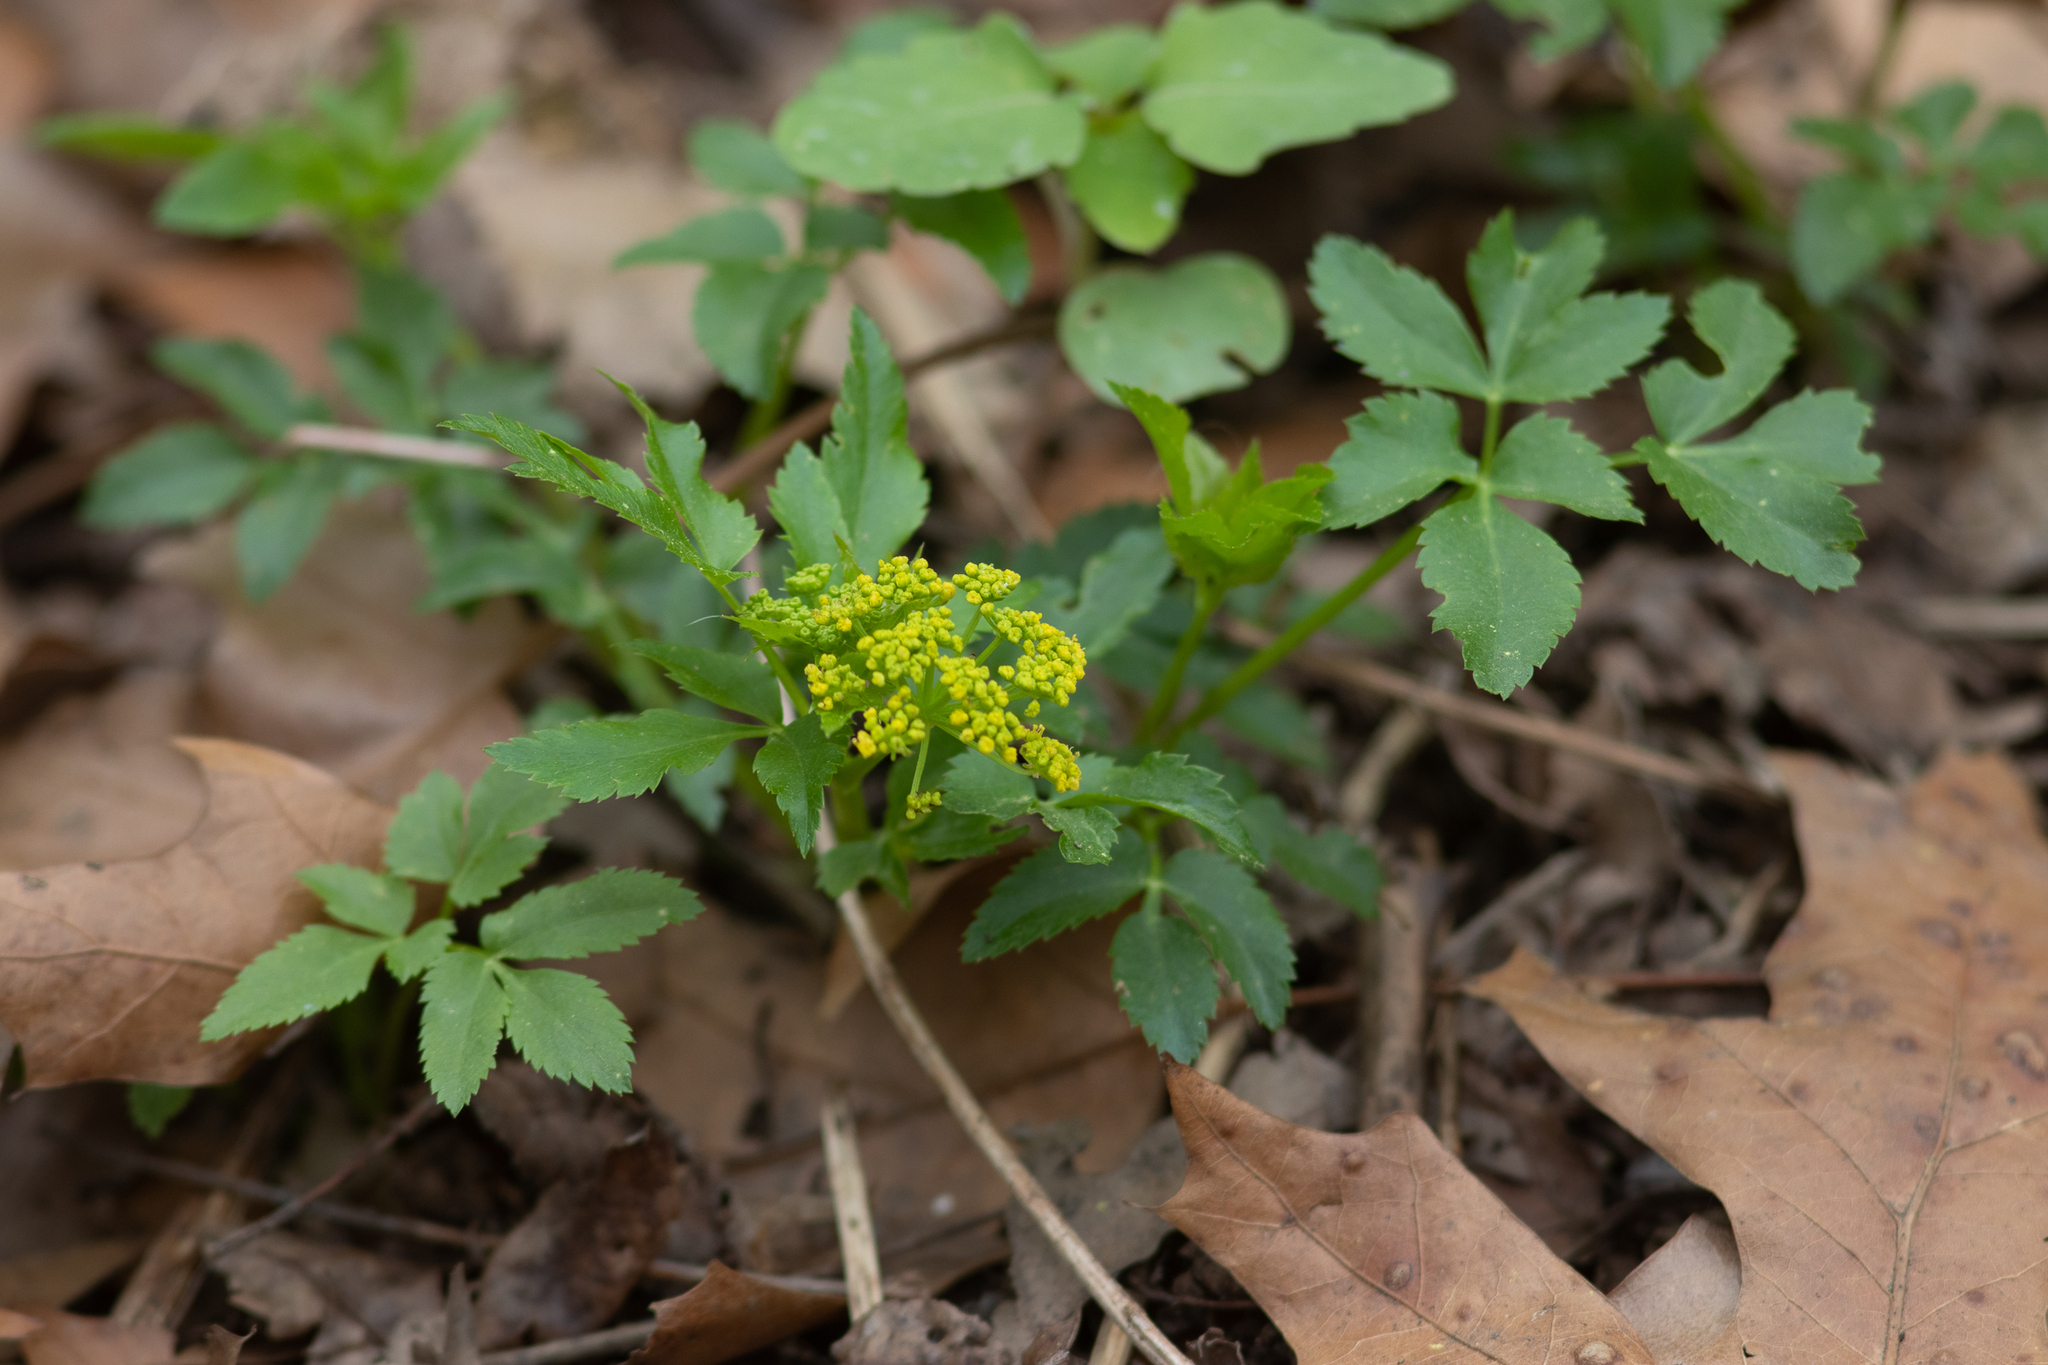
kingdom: Plantae
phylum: Tracheophyta
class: Magnoliopsida
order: Apiales
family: Apiaceae
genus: Zizia
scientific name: Zizia aurea
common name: Golden alexanders
